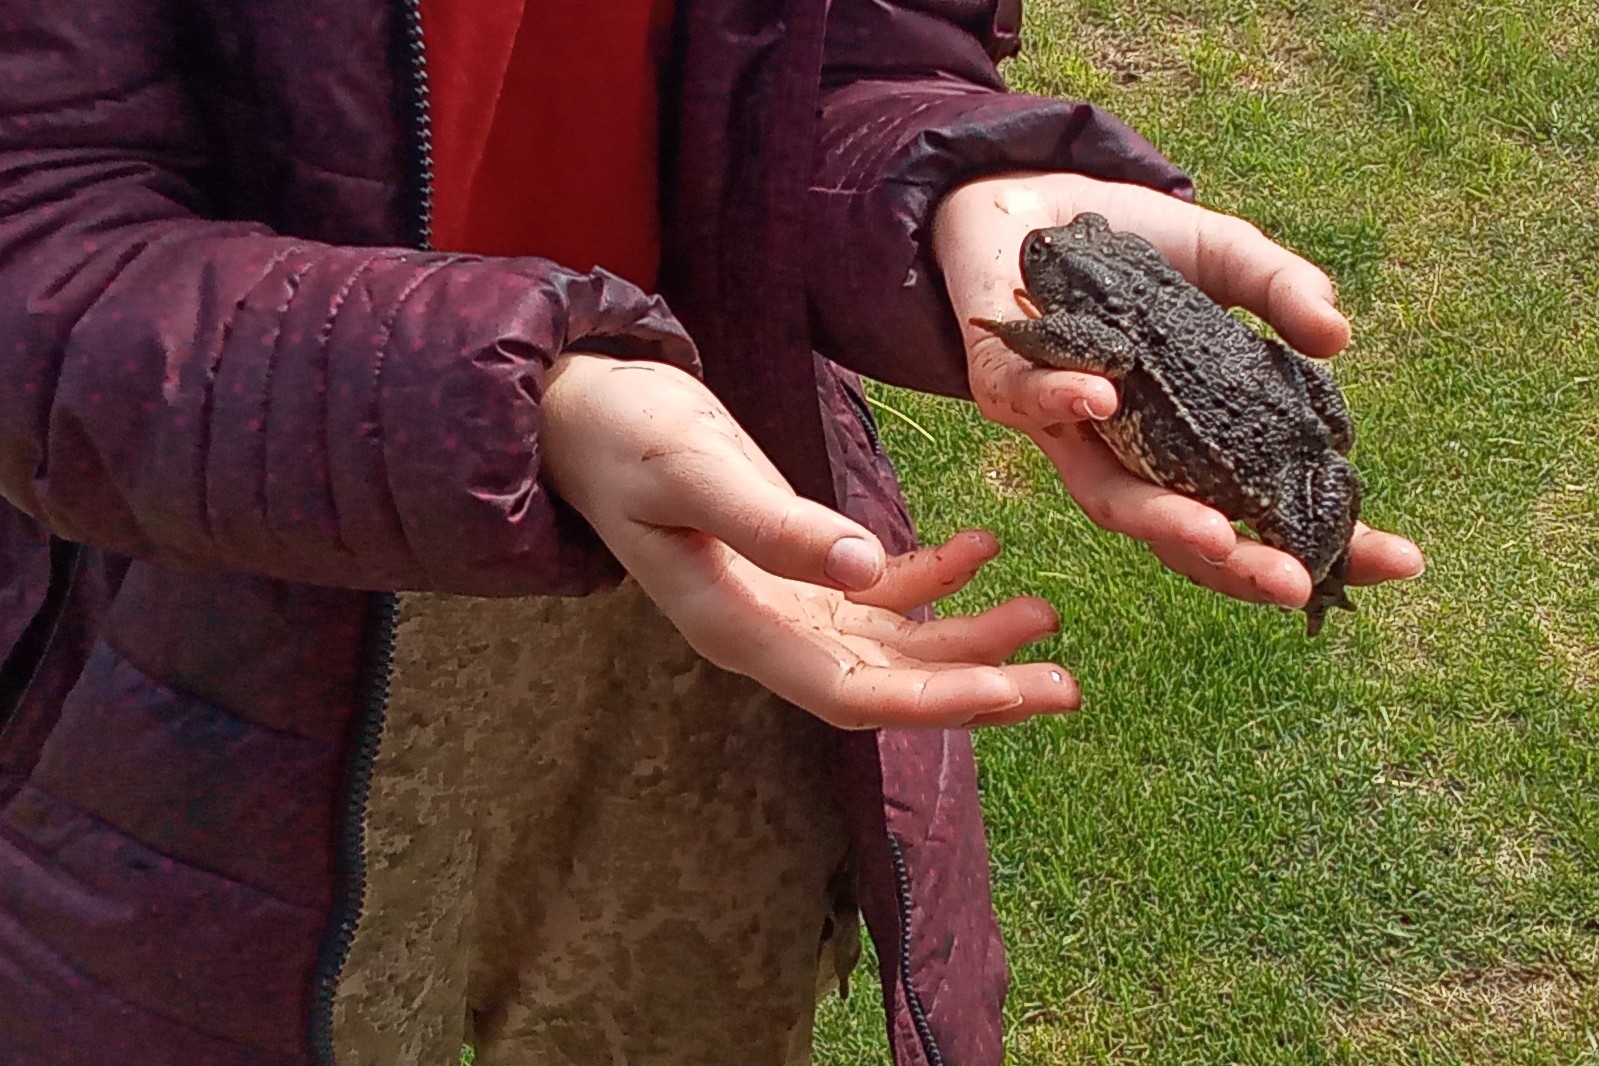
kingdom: Animalia
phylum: Chordata
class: Amphibia
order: Anura
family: Bufonidae
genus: Bufo
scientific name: Bufo bufo
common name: Common toad
